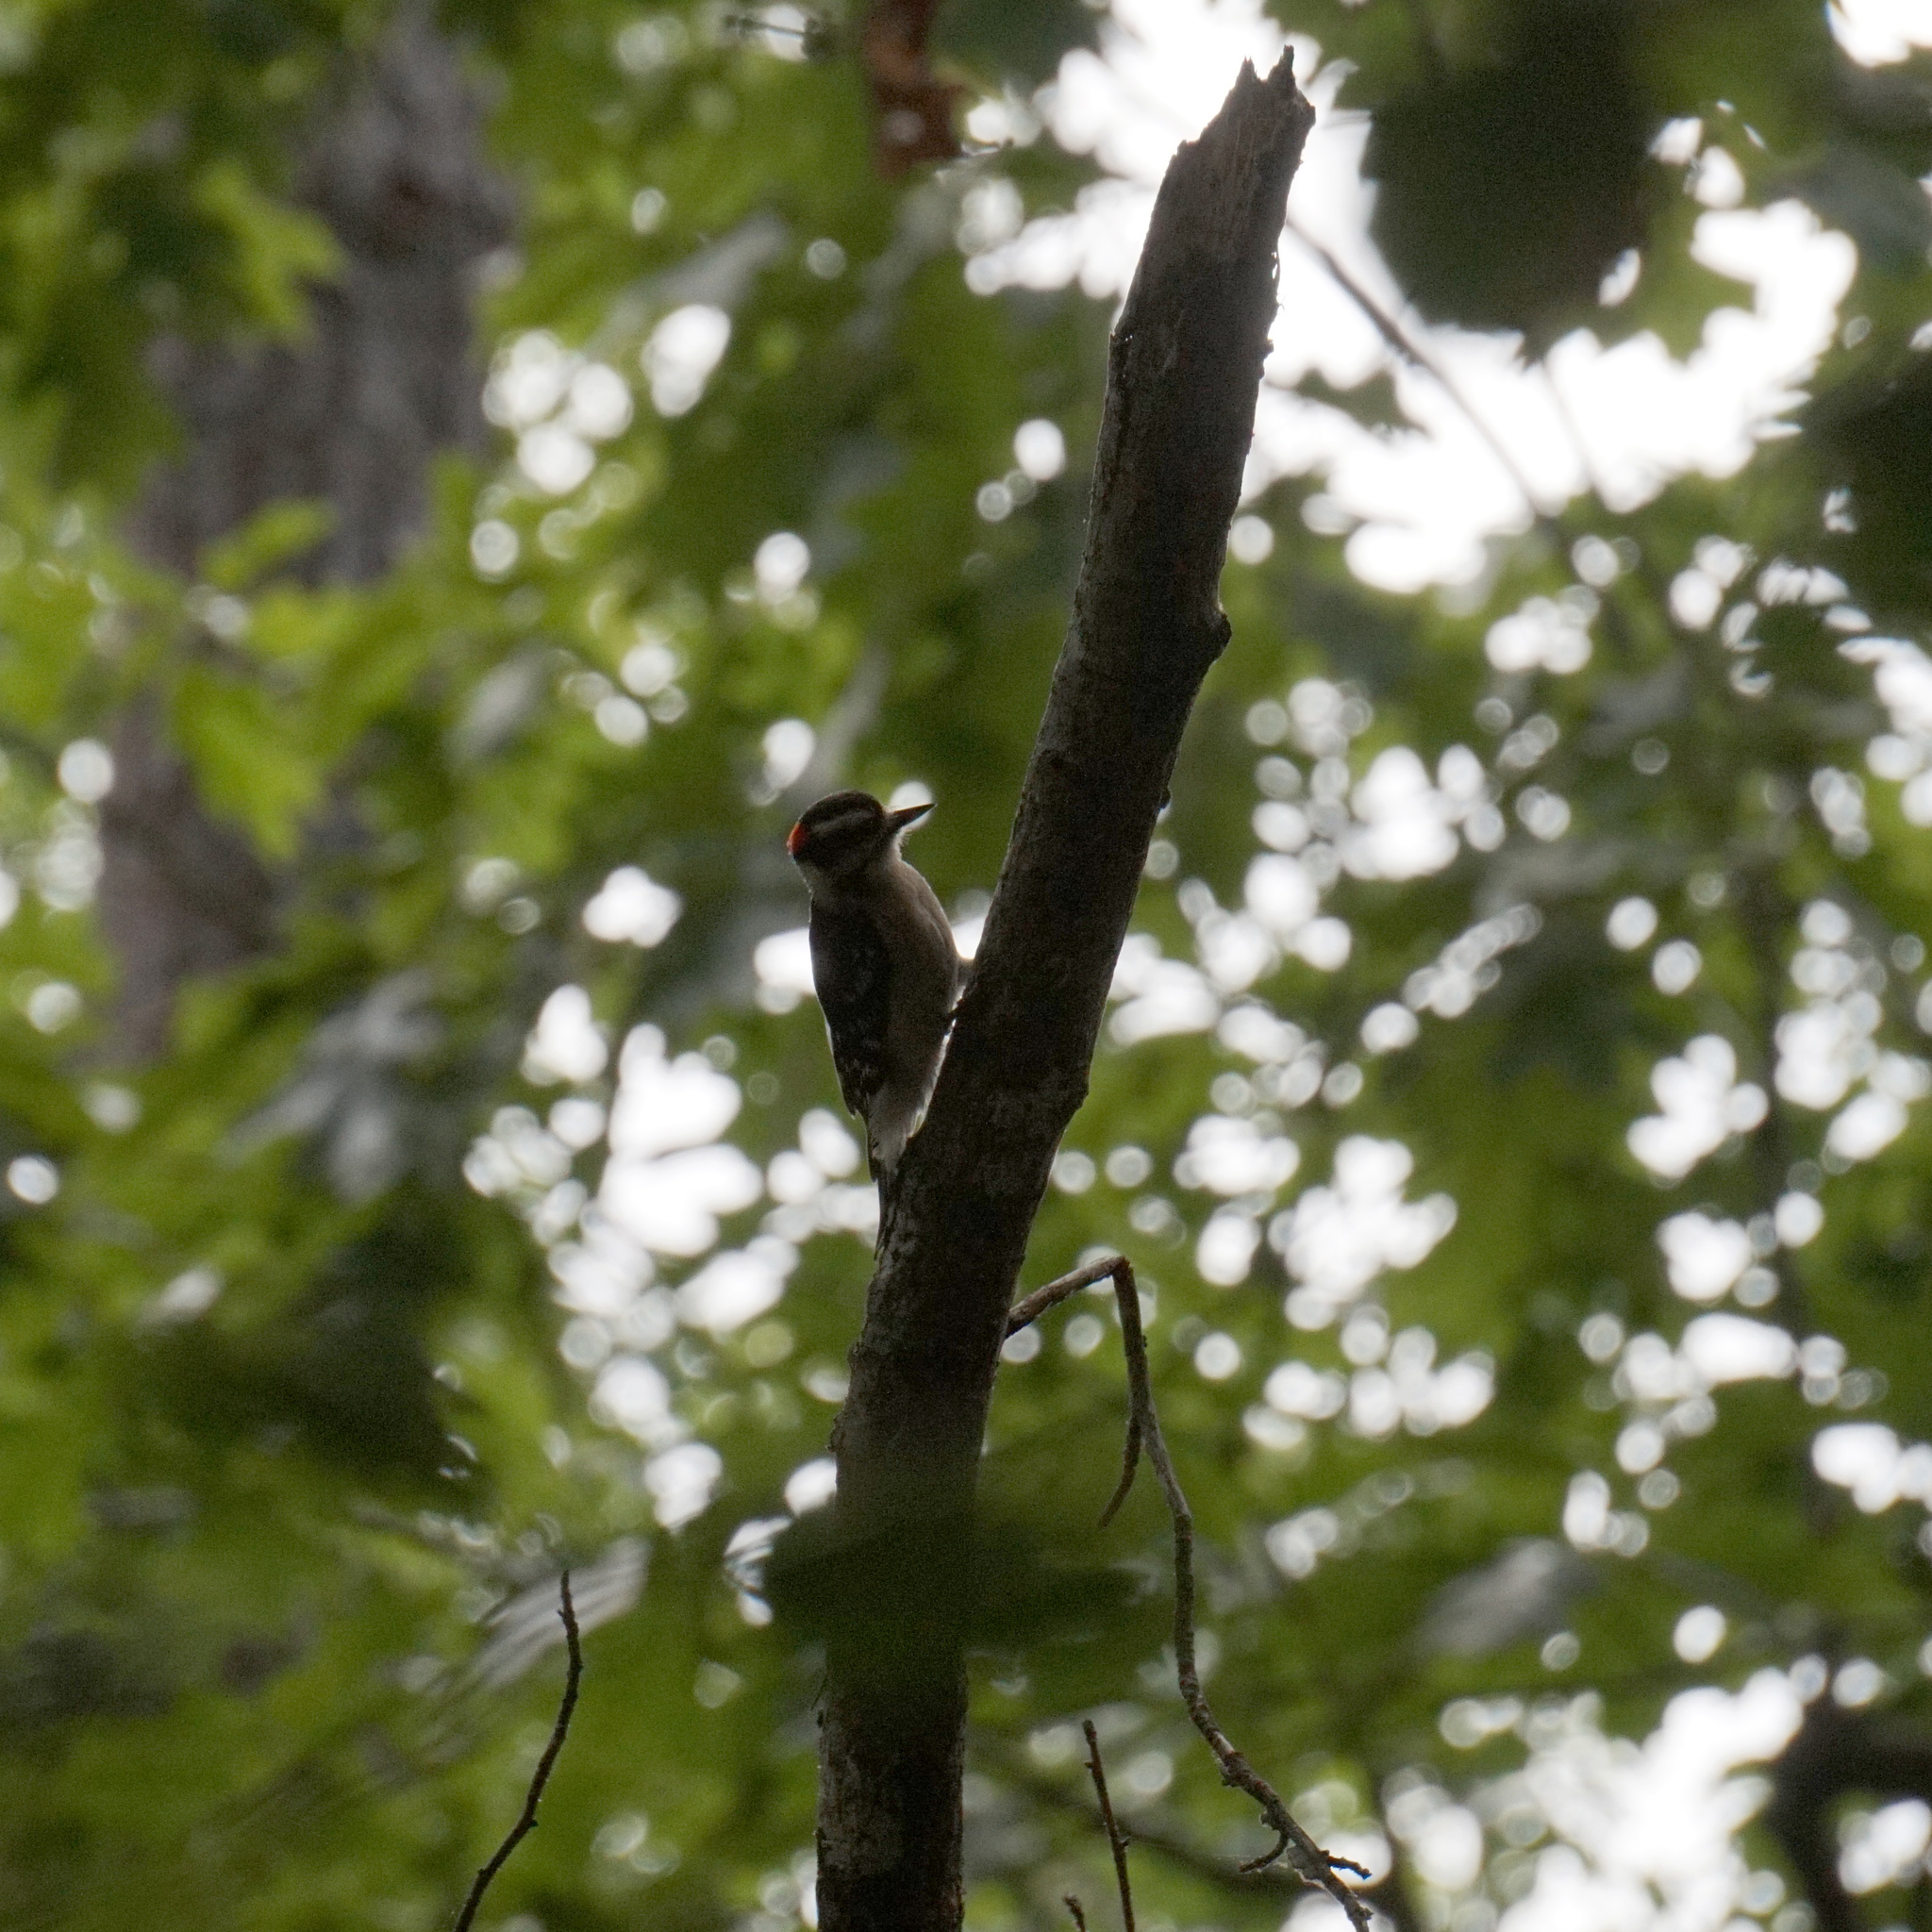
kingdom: Animalia
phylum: Chordata
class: Aves
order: Piciformes
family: Picidae
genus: Dryobates
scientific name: Dryobates pubescens
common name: Downy woodpecker
